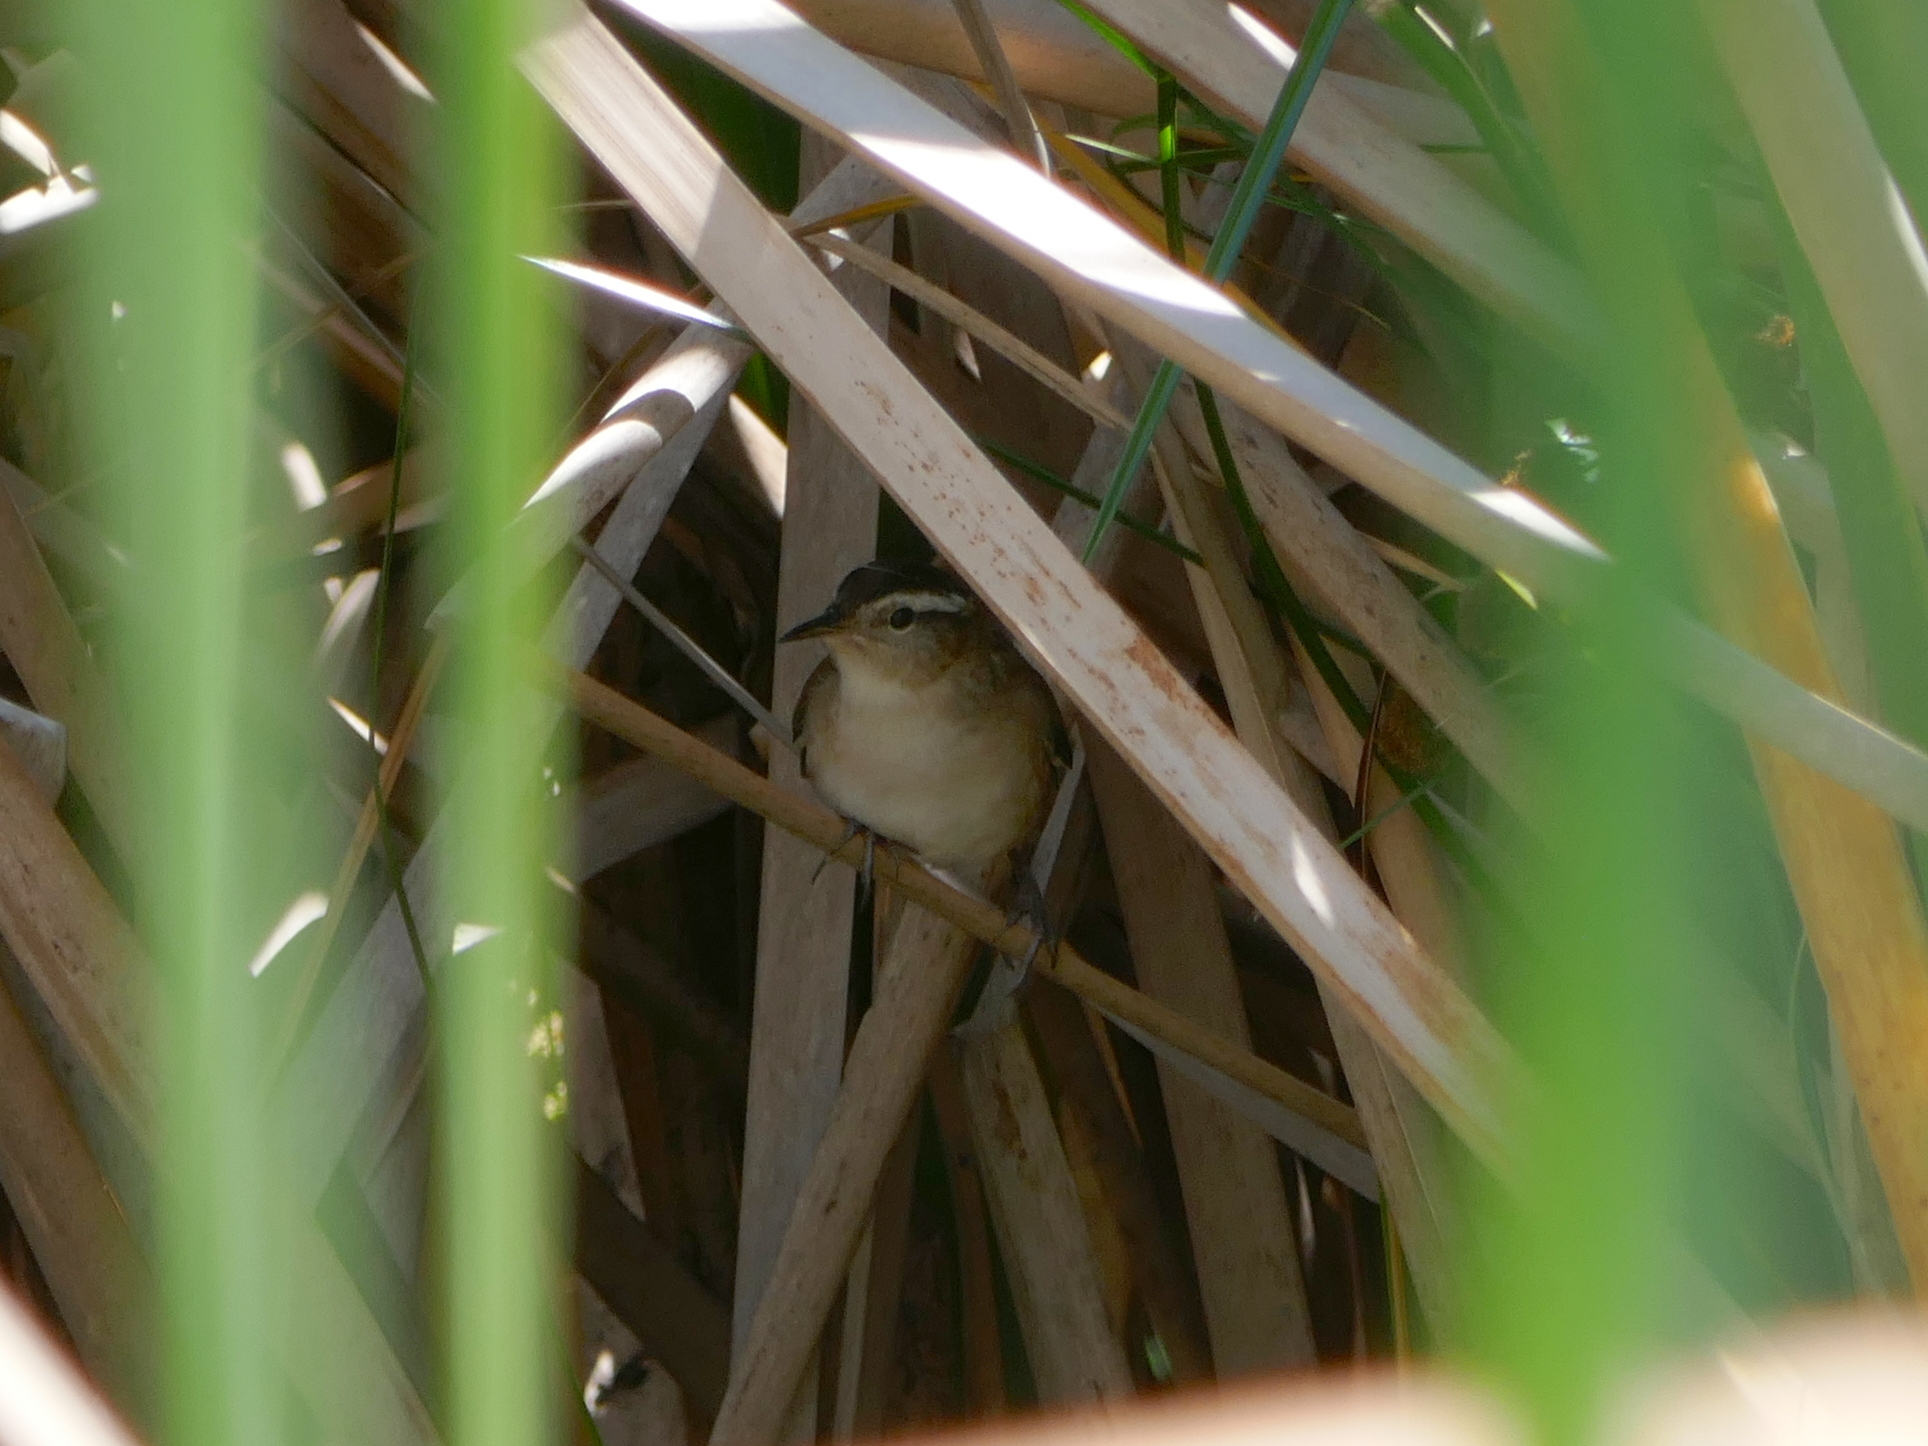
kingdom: Animalia
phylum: Chordata
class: Aves
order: Passeriformes
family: Troglodytidae
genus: Cistothorus
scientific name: Cistothorus palustris
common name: Marsh wren
